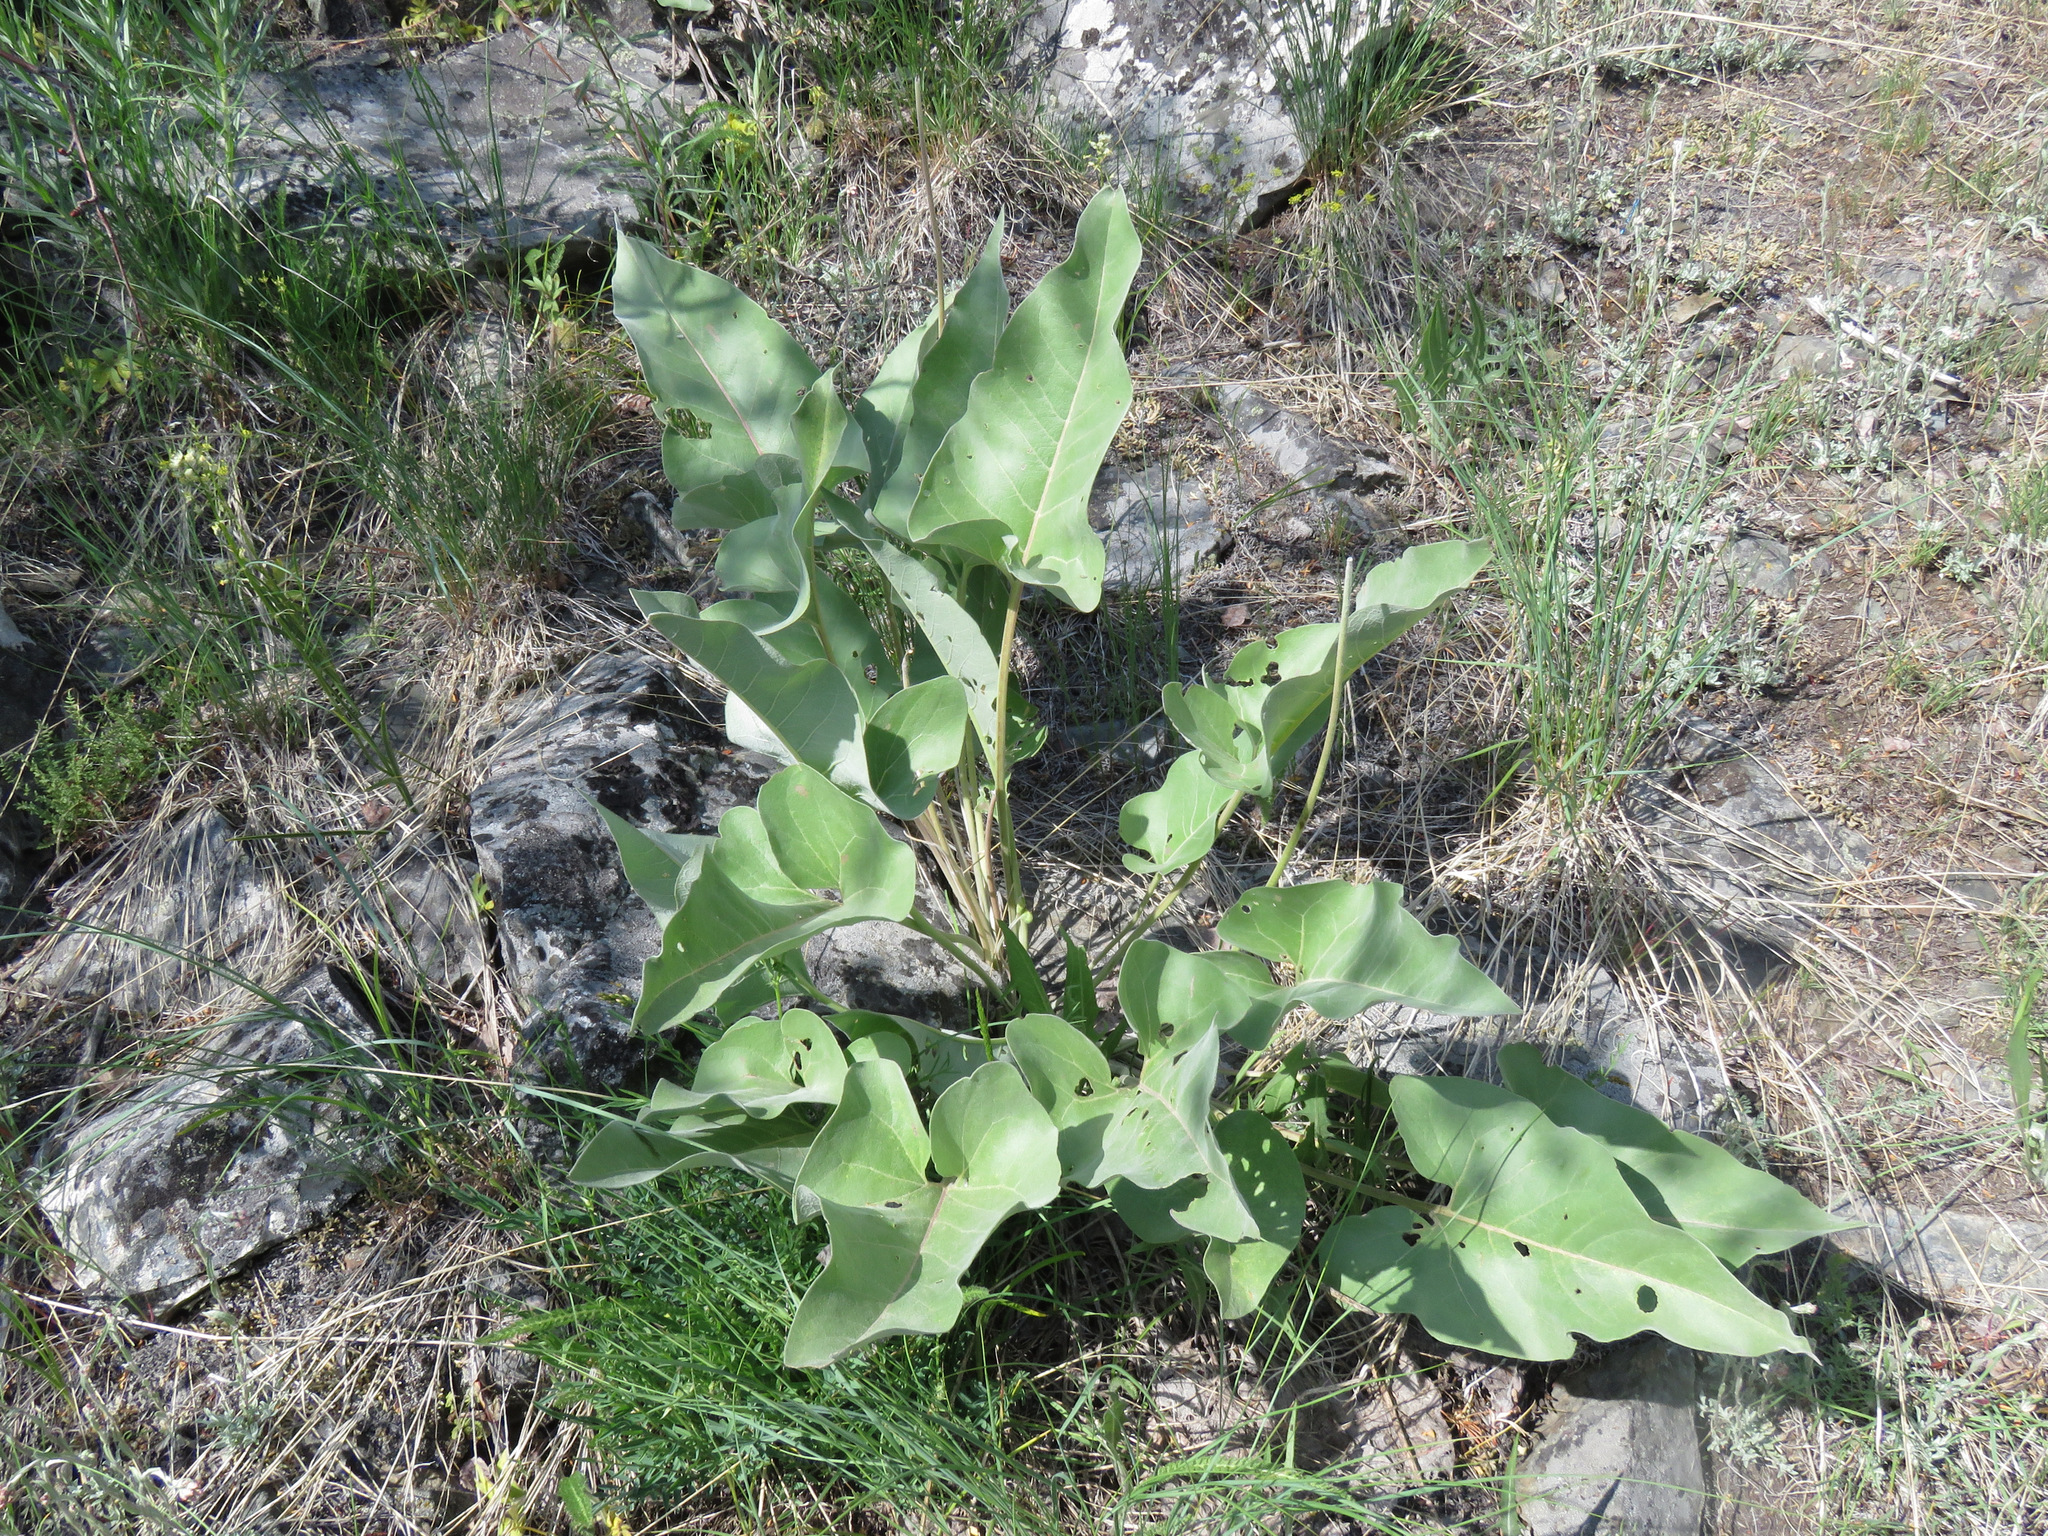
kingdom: Plantae
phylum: Tracheophyta
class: Magnoliopsida
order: Asterales
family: Asteraceae
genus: Wyethia
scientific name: Wyethia sagittata
